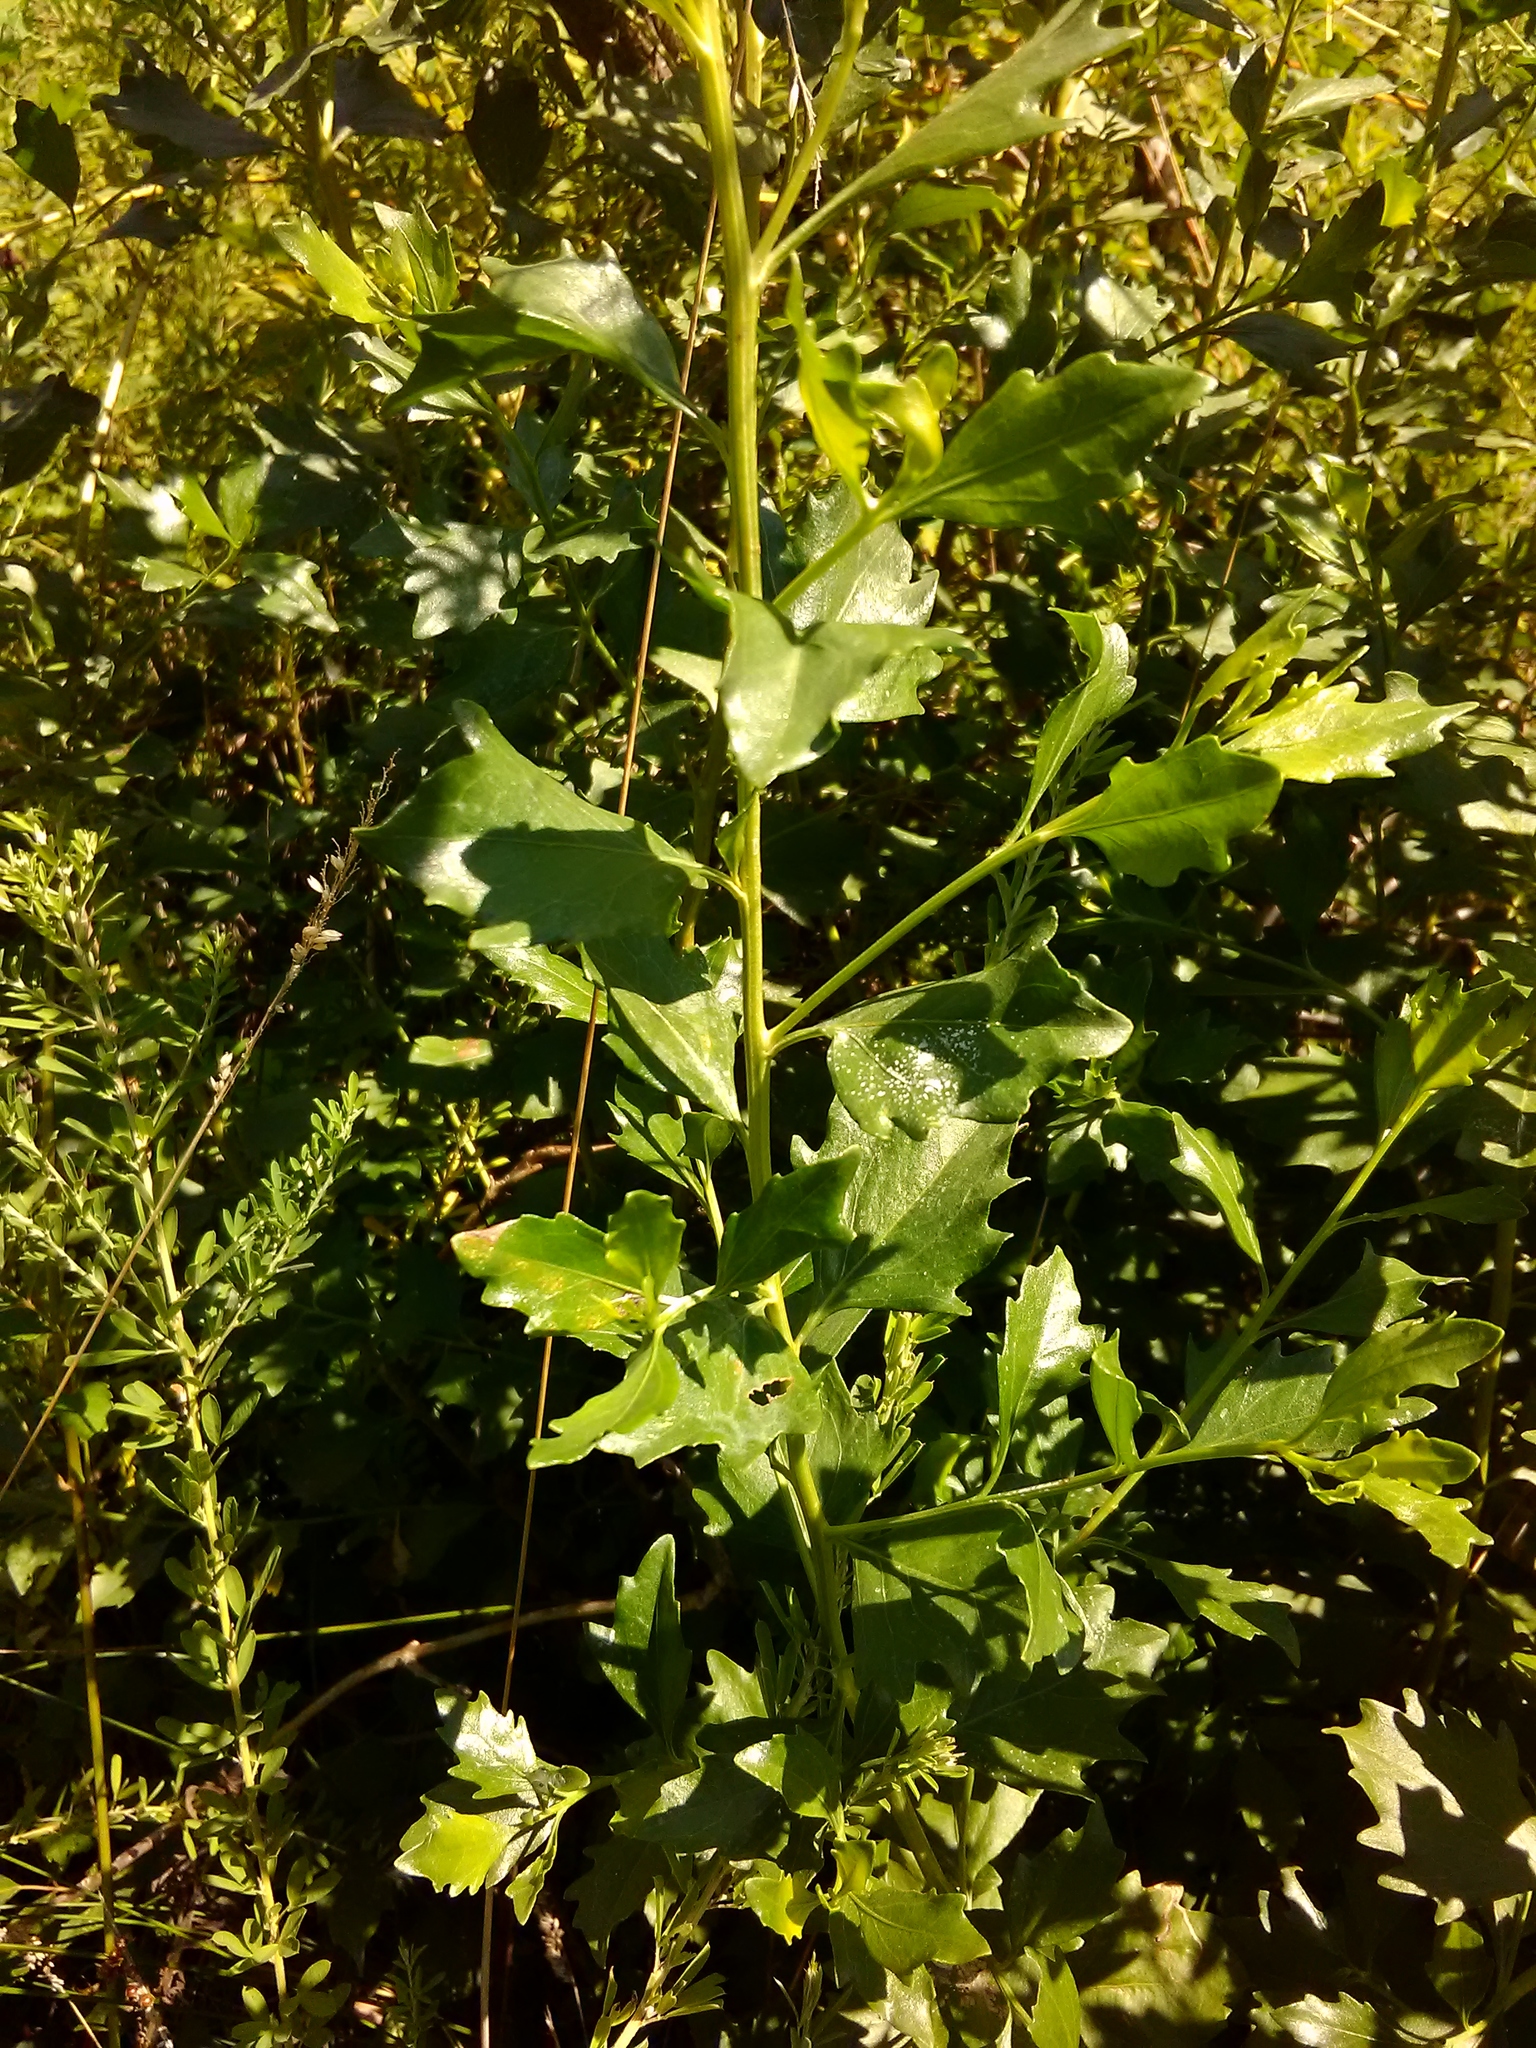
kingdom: Plantae
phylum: Tracheophyta
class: Magnoliopsida
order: Asterales
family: Asteraceae
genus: Baccharis
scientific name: Baccharis halimifolia
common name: Eastern baccharis
